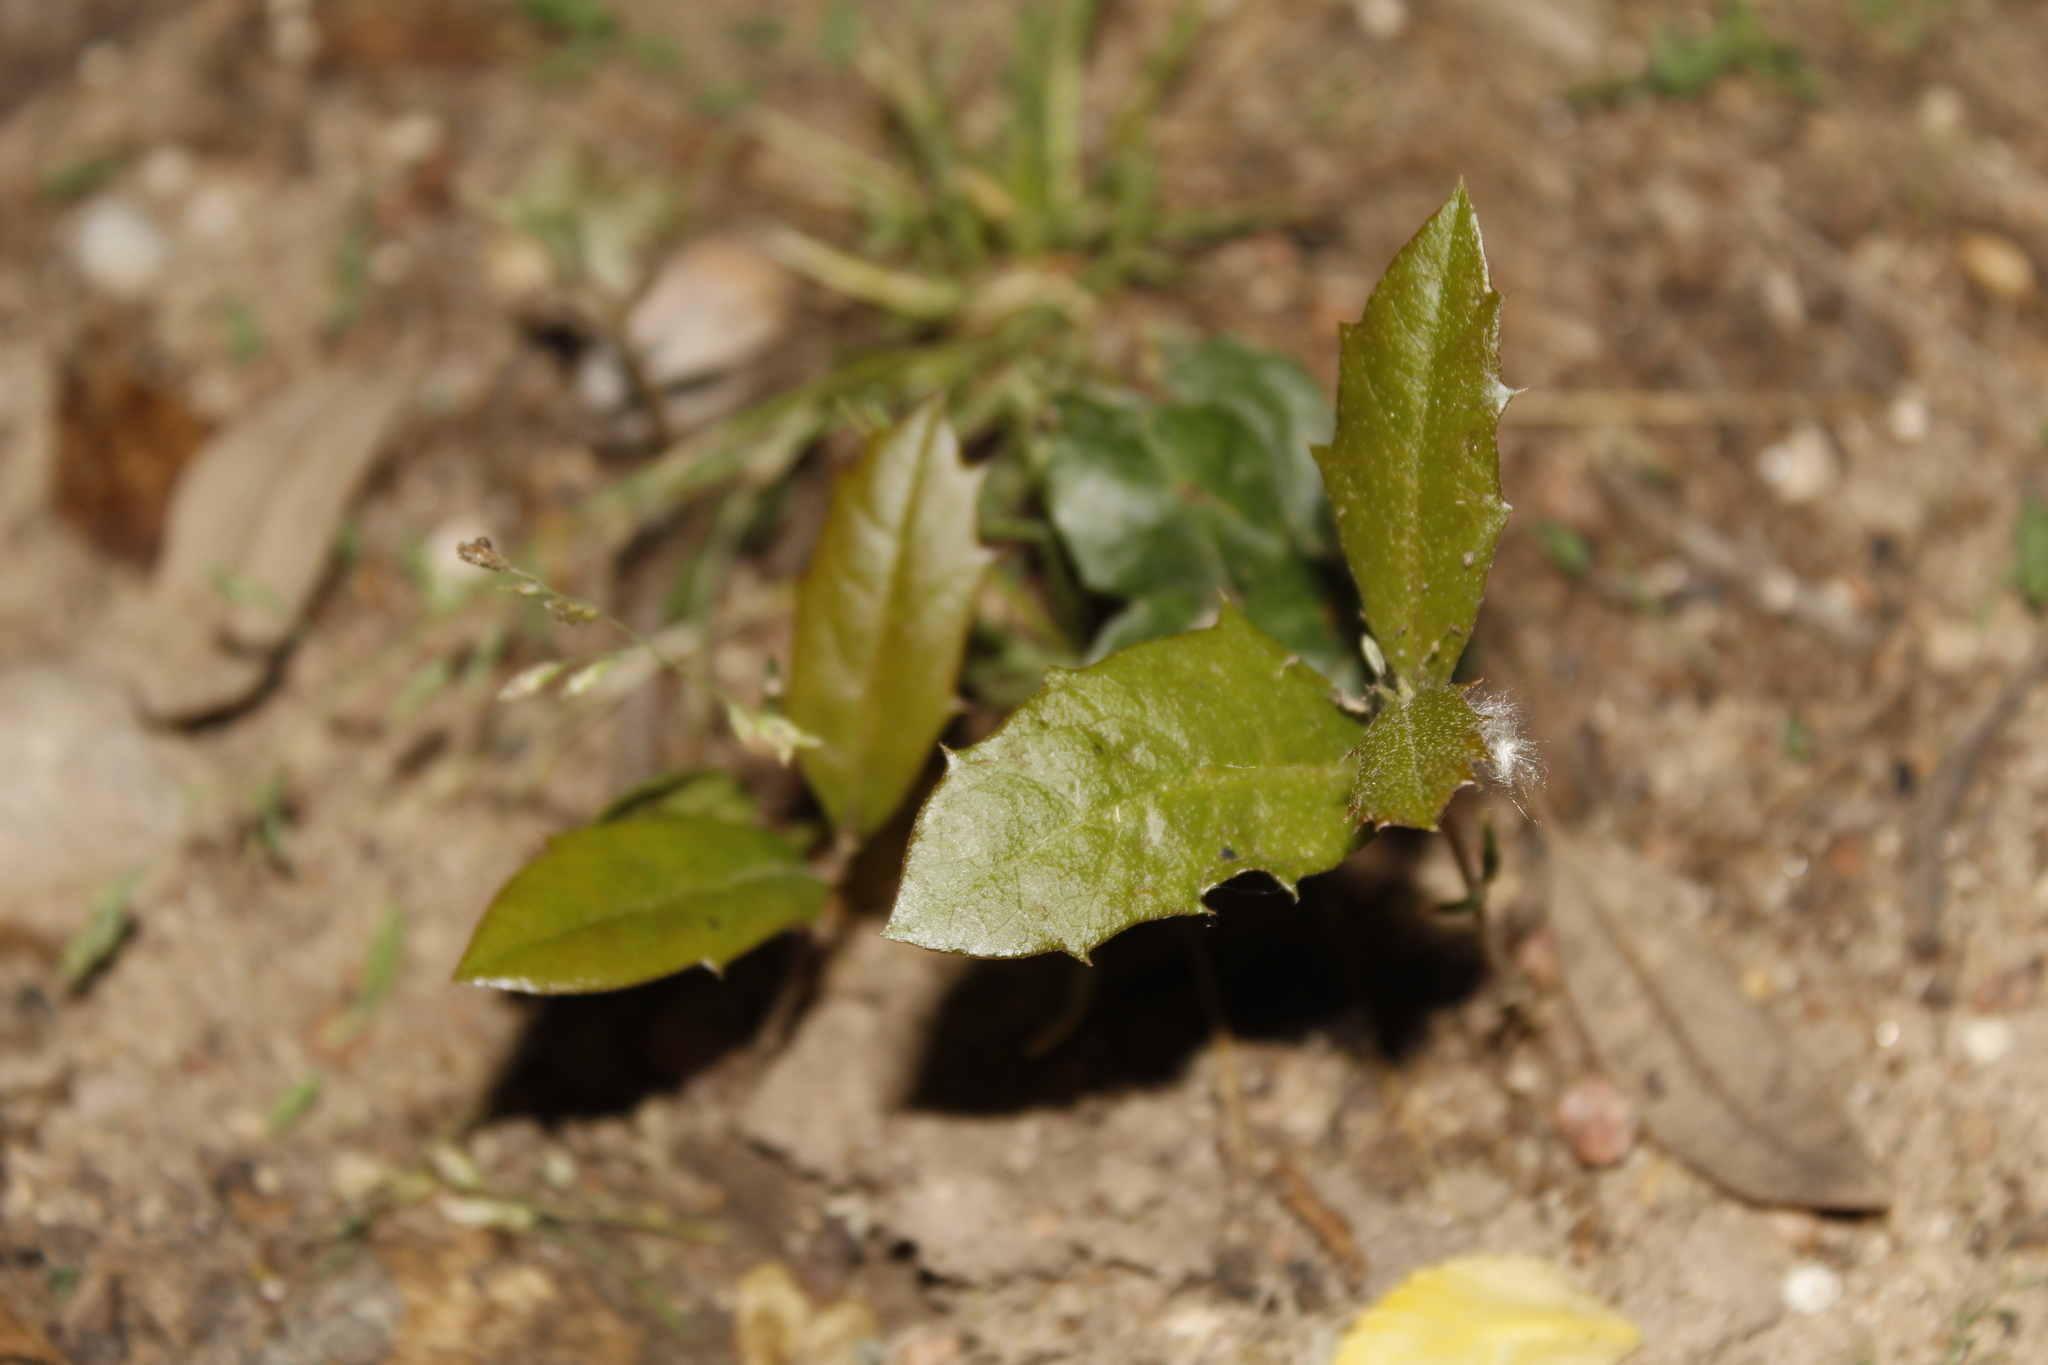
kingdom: Plantae
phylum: Tracheophyta
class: Magnoliopsida
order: Fagales
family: Fagaceae
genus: Quercus
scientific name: Quercus
